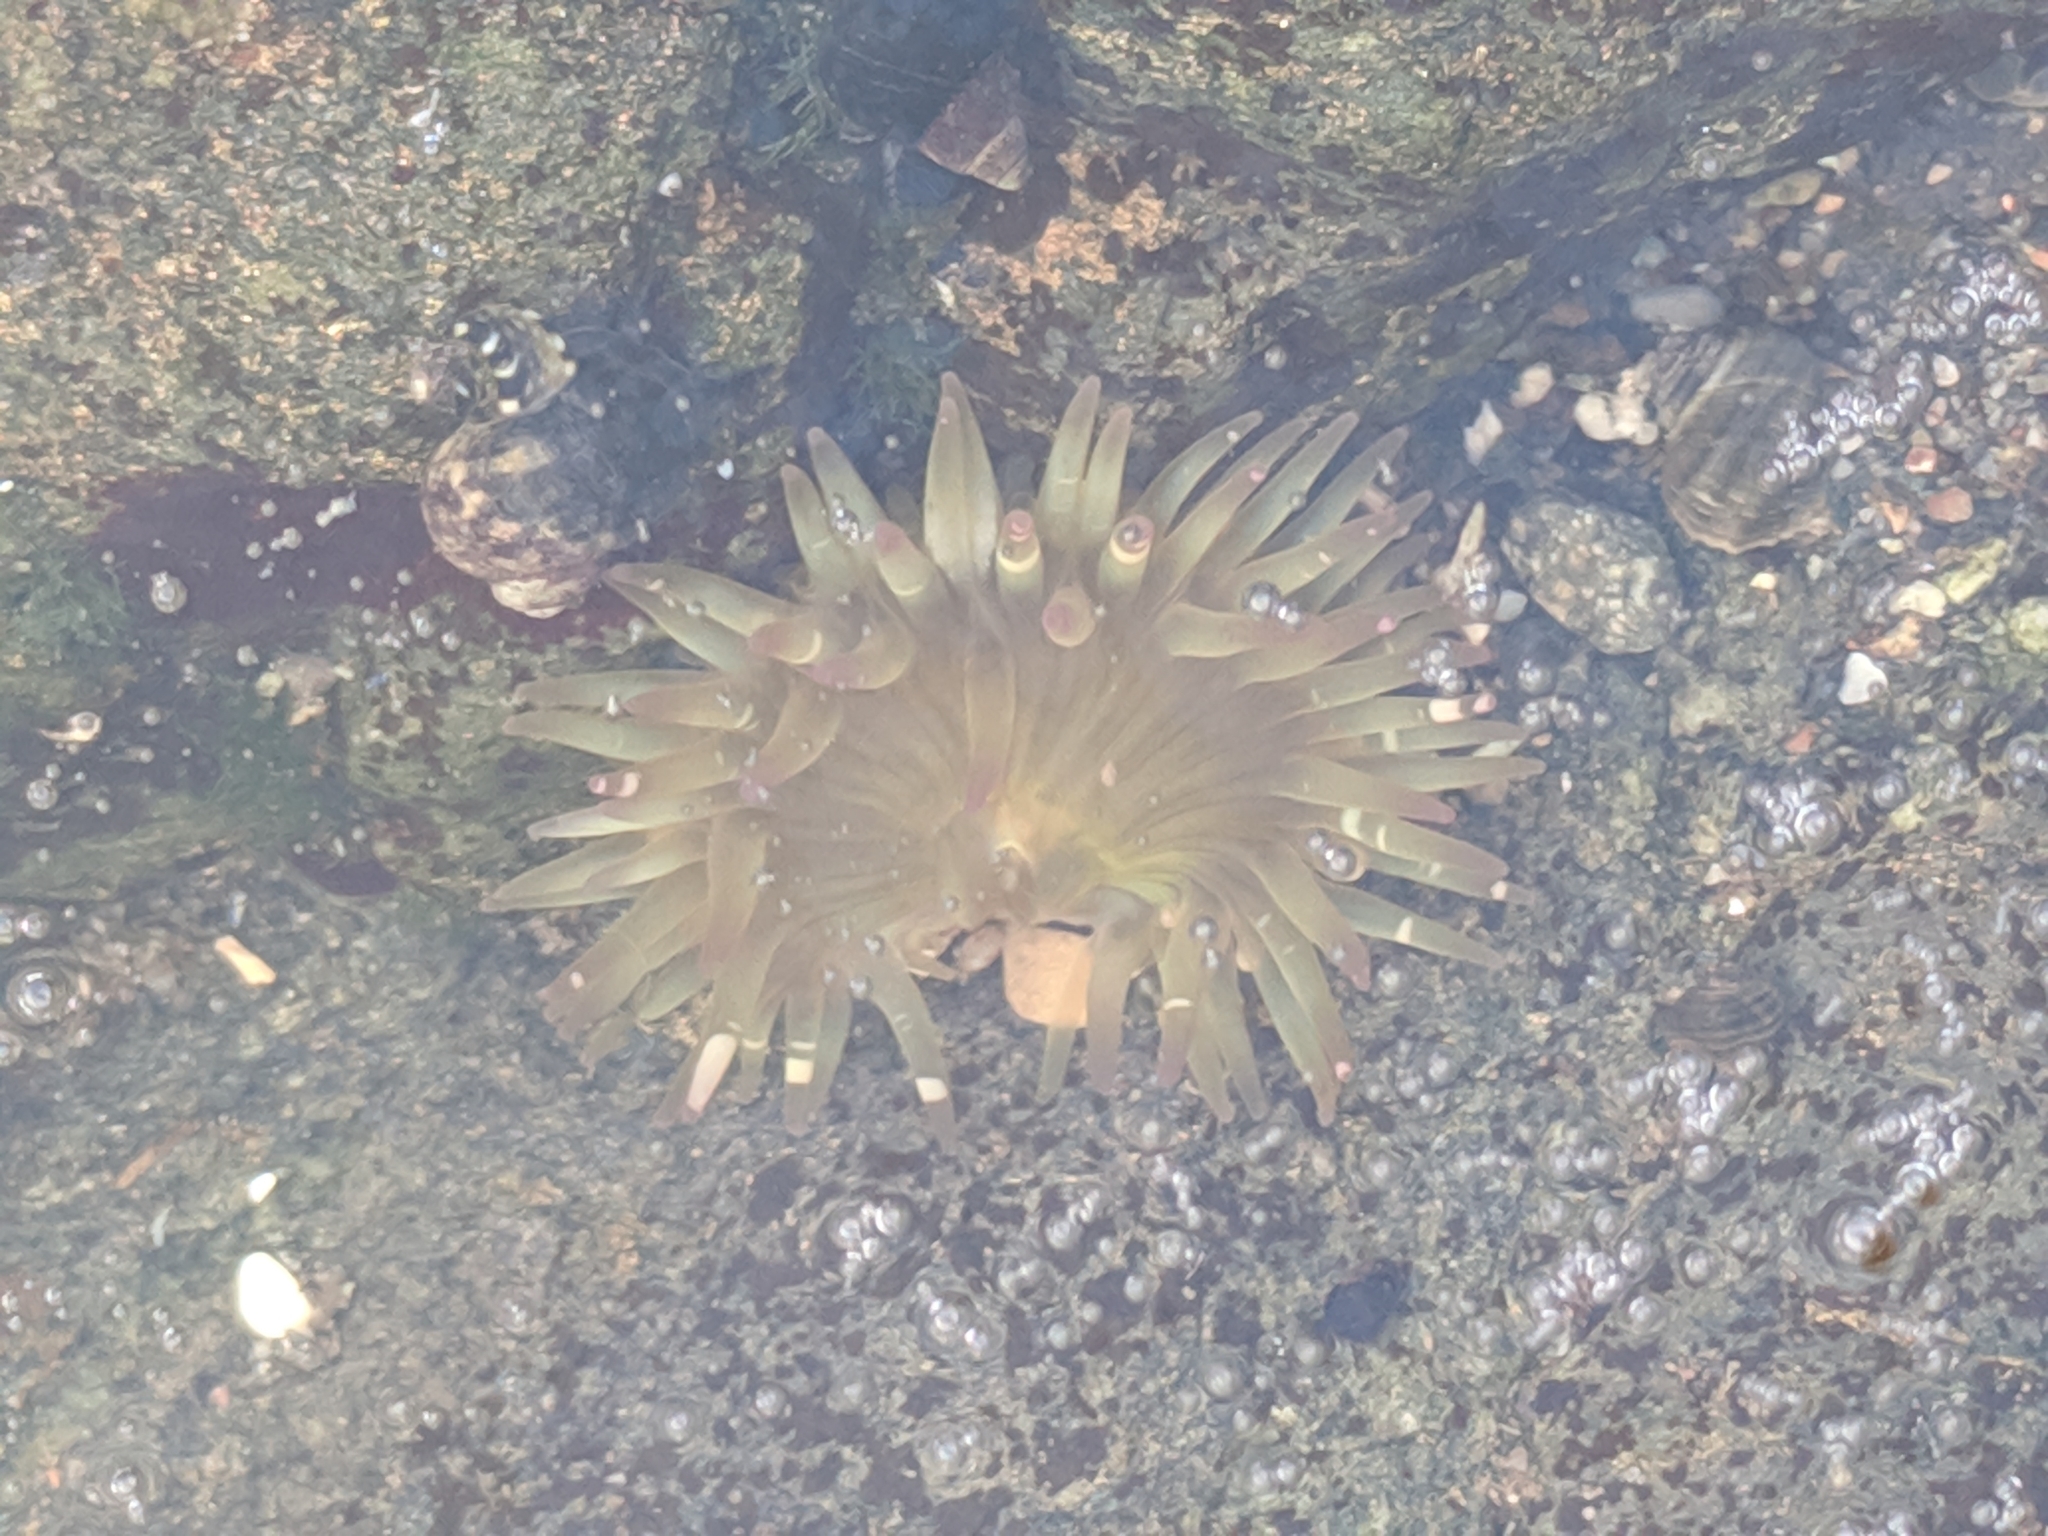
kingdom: Animalia
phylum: Cnidaria
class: Anthozoa
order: Actiniaria
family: Actiniidae
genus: Anthopleura
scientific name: Anthopleura elegantissima
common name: Clonal anemone
